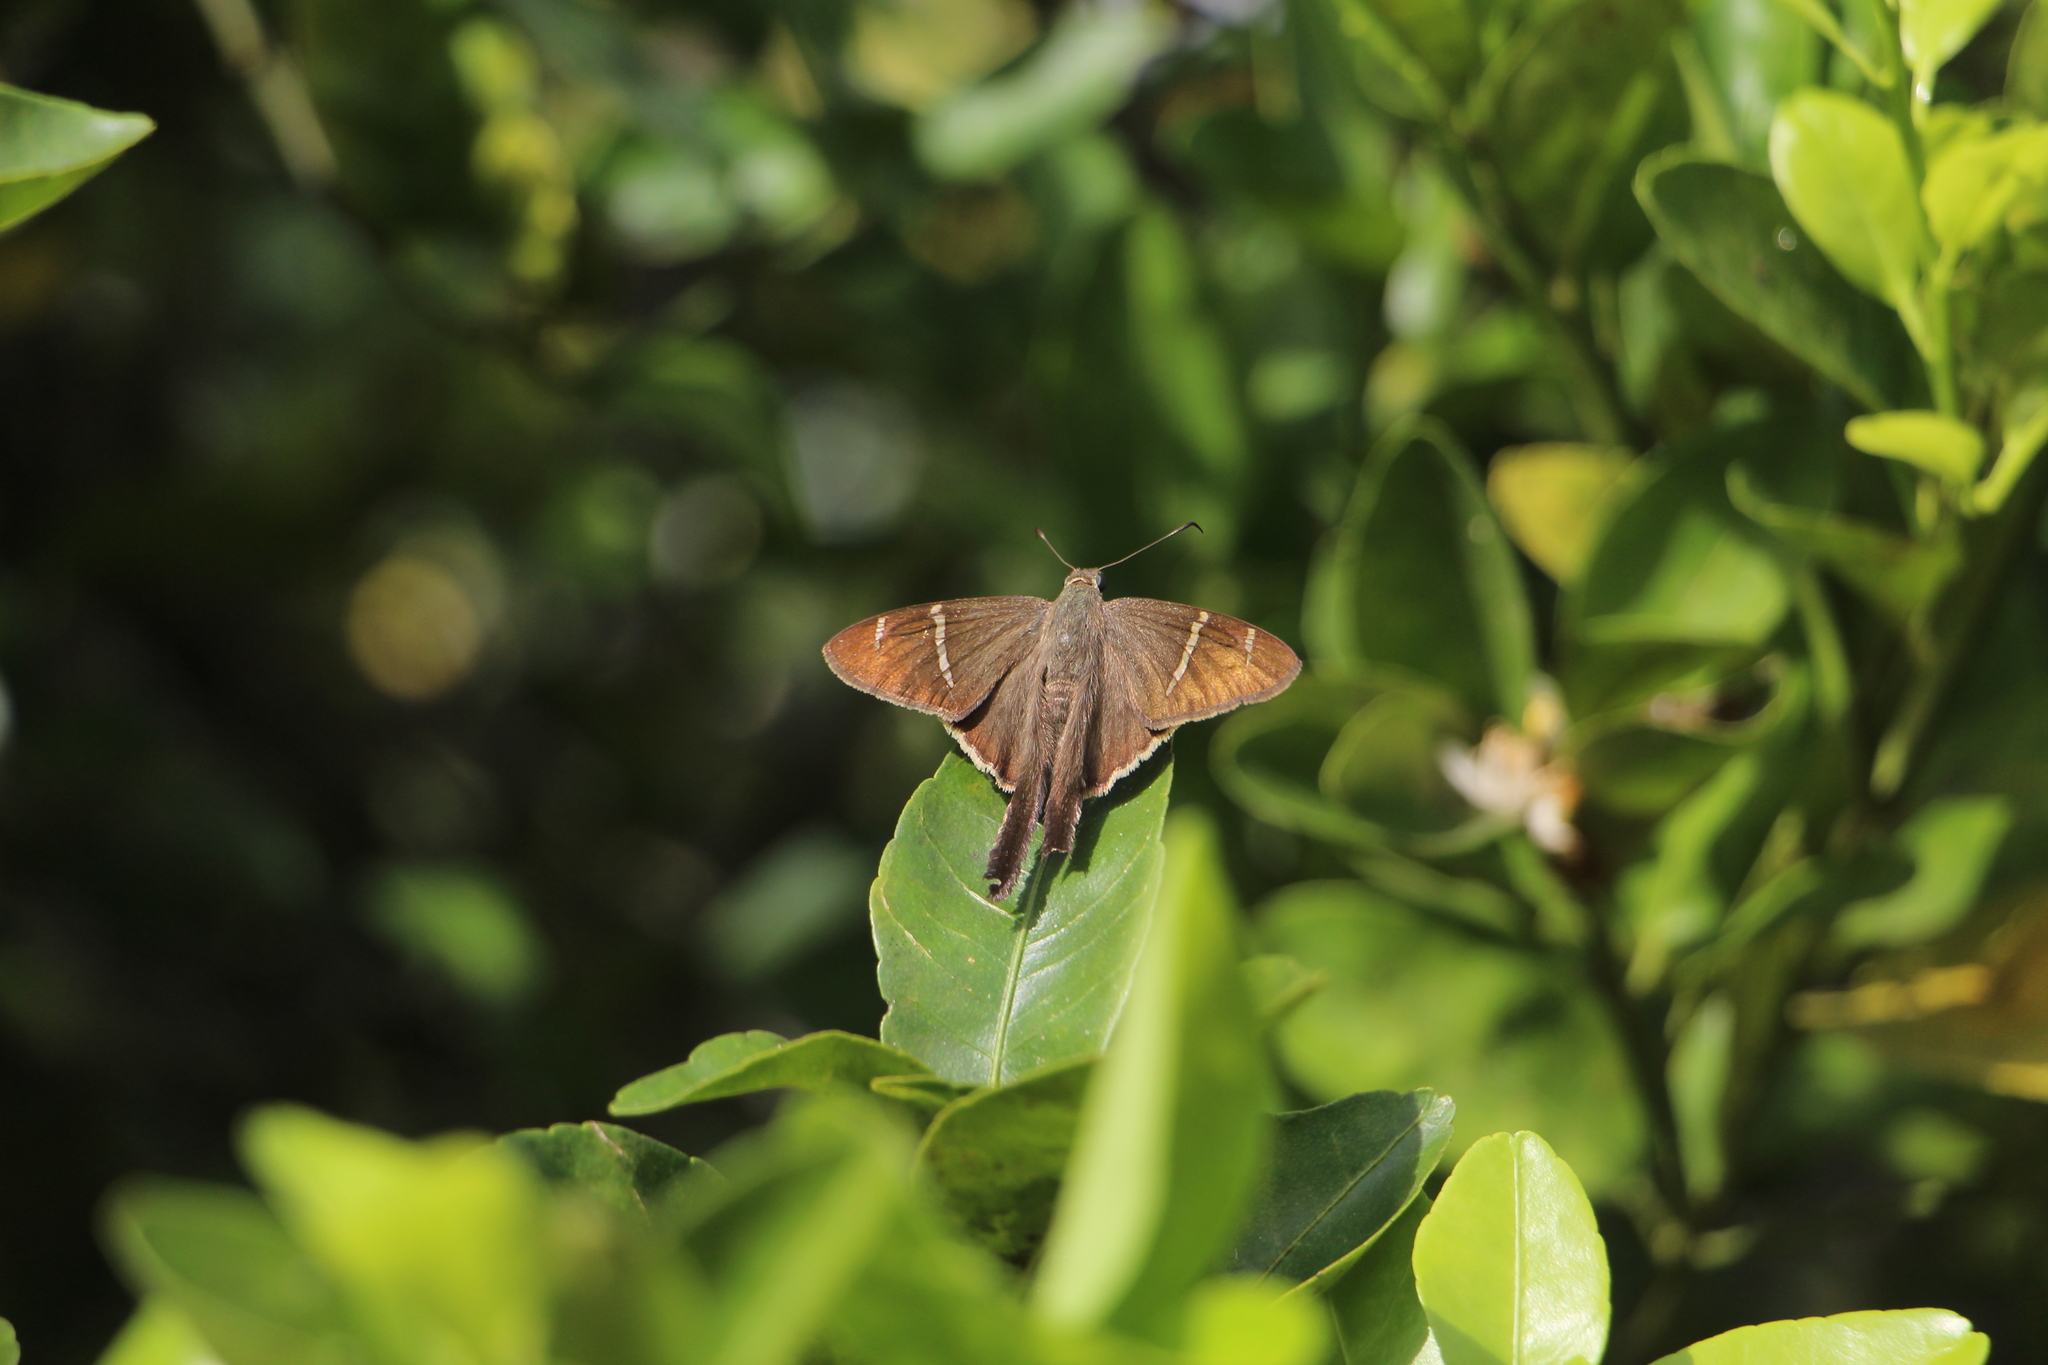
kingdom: Animalia
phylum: Arthropoda
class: Insecta
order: Lepidoptera
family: Hesperiidae
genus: Urbanus
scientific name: Urbanus teleus
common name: Teleus longtail
